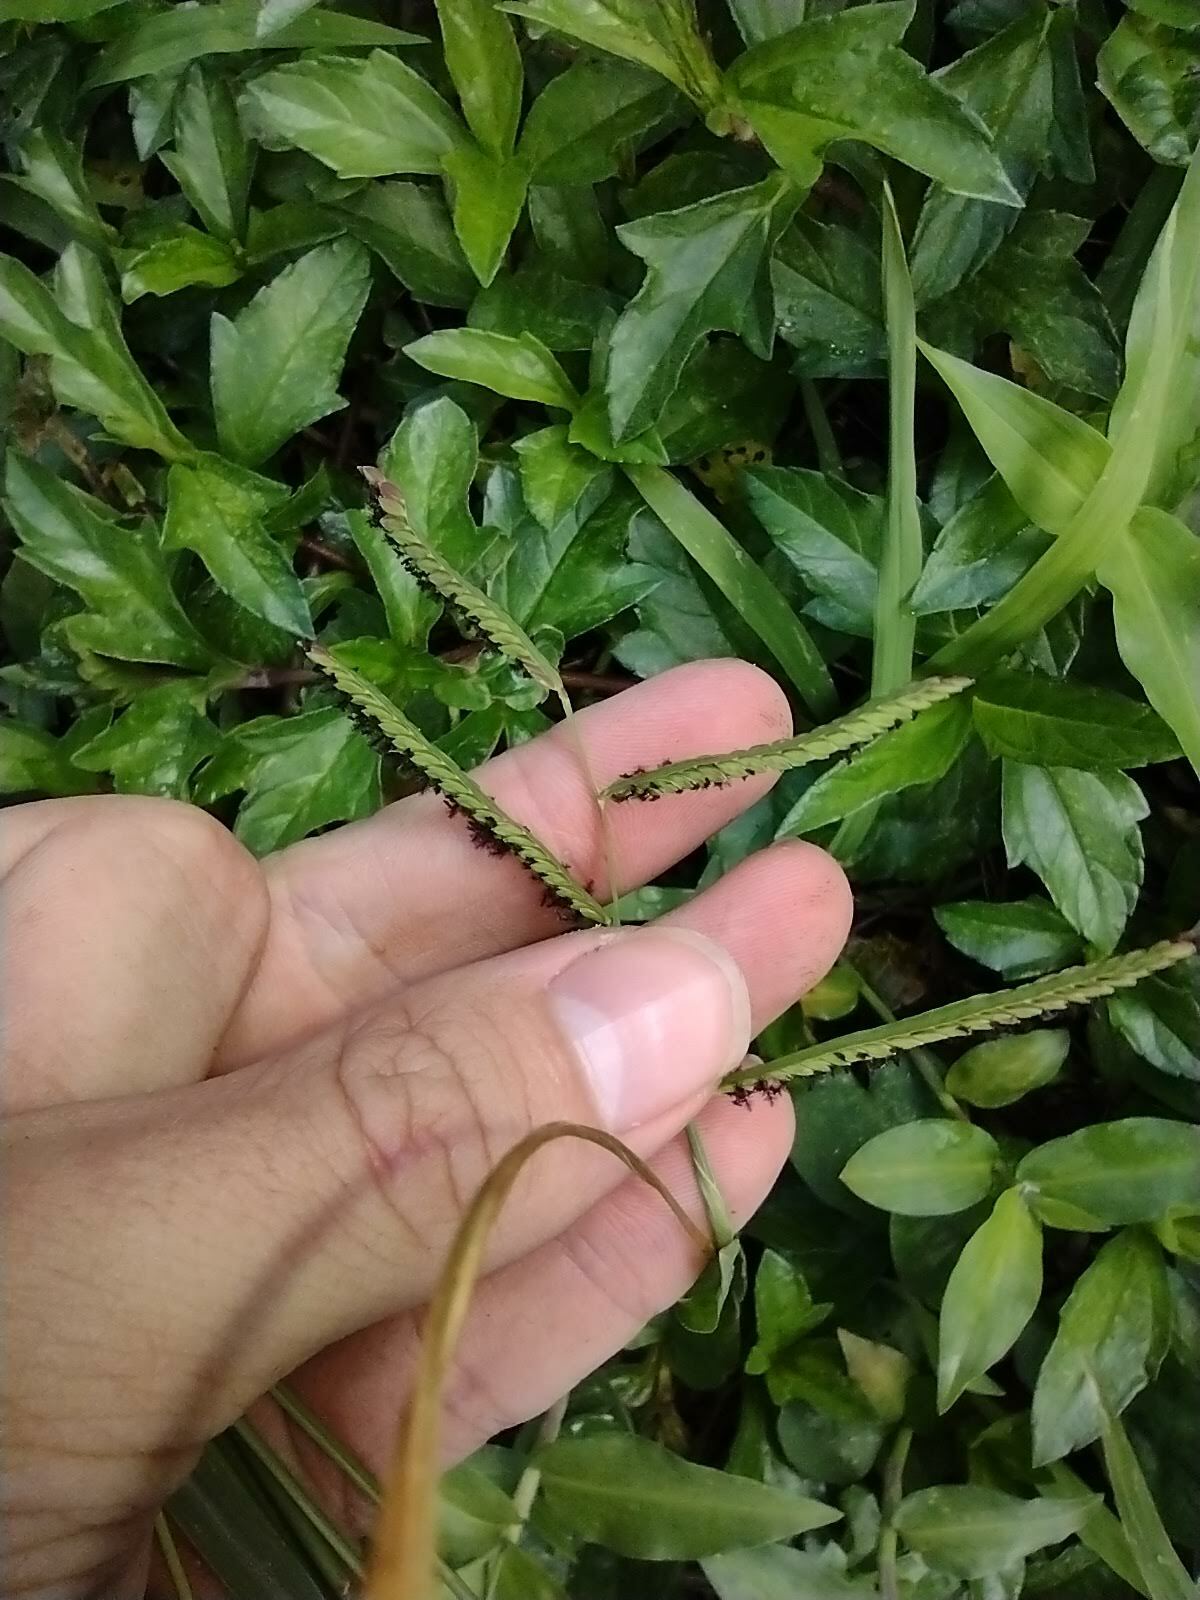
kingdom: Plantae
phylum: Tracheophyta
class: Liliopsida
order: Poales
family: Poaceae
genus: Paspalum
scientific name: Paspalum jesuiticum
